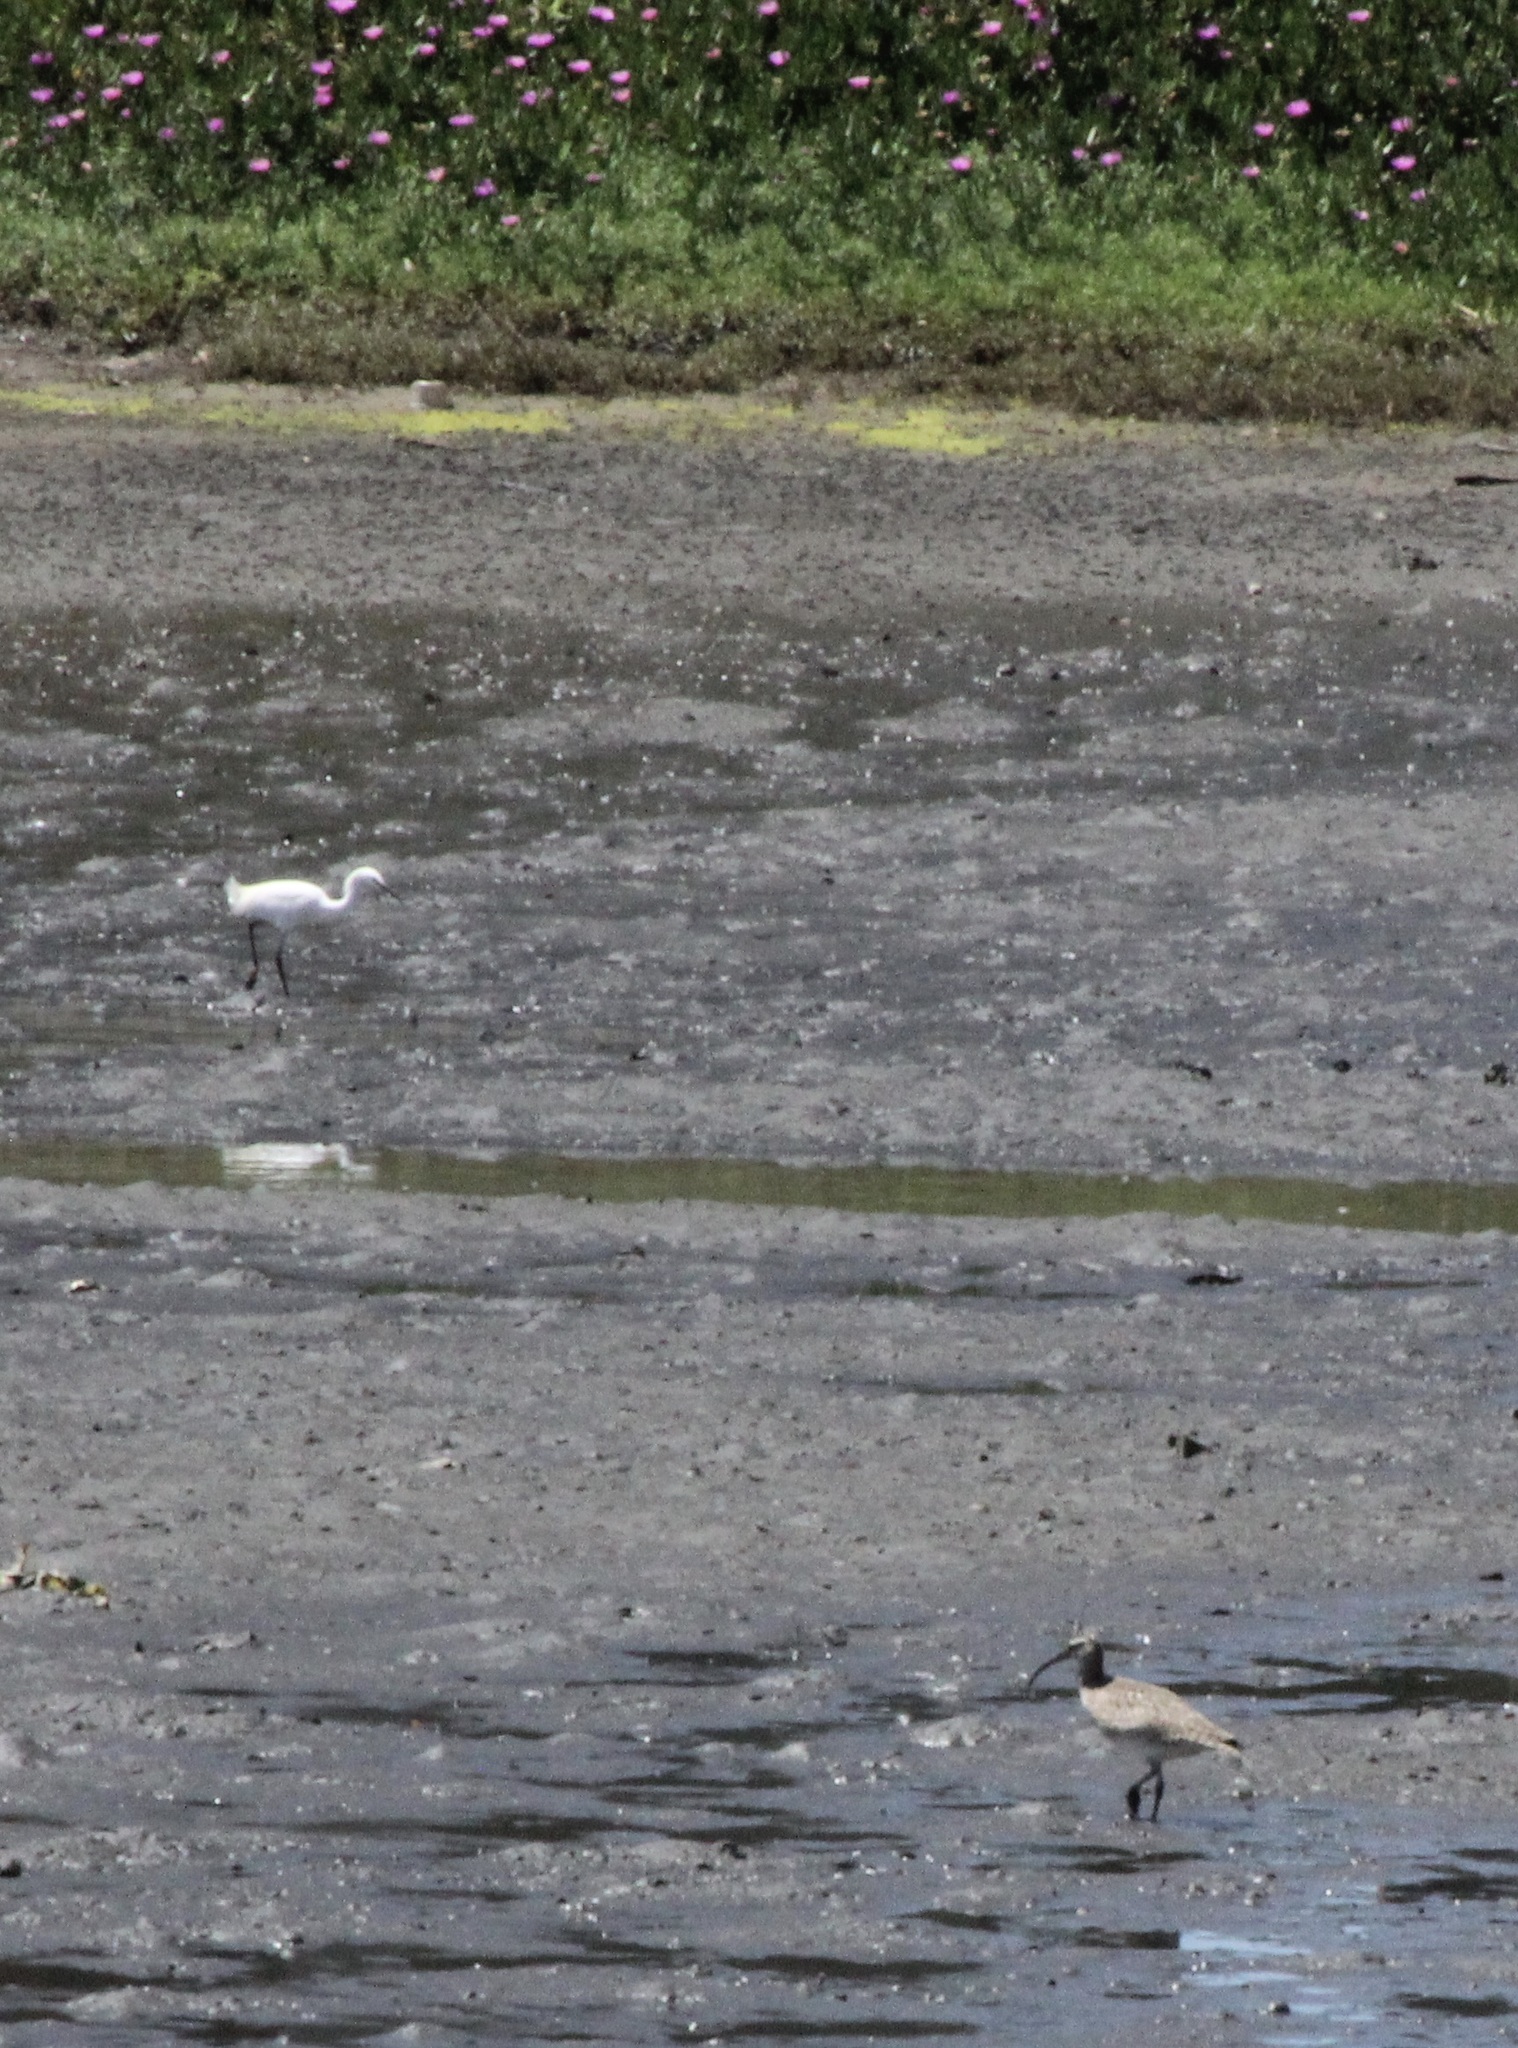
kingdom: Animalia
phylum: Chordata
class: Aves
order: Charadriiformes
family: Scolopacidae
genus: Numenius
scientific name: Numenius phaeopus
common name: Whimbrel
